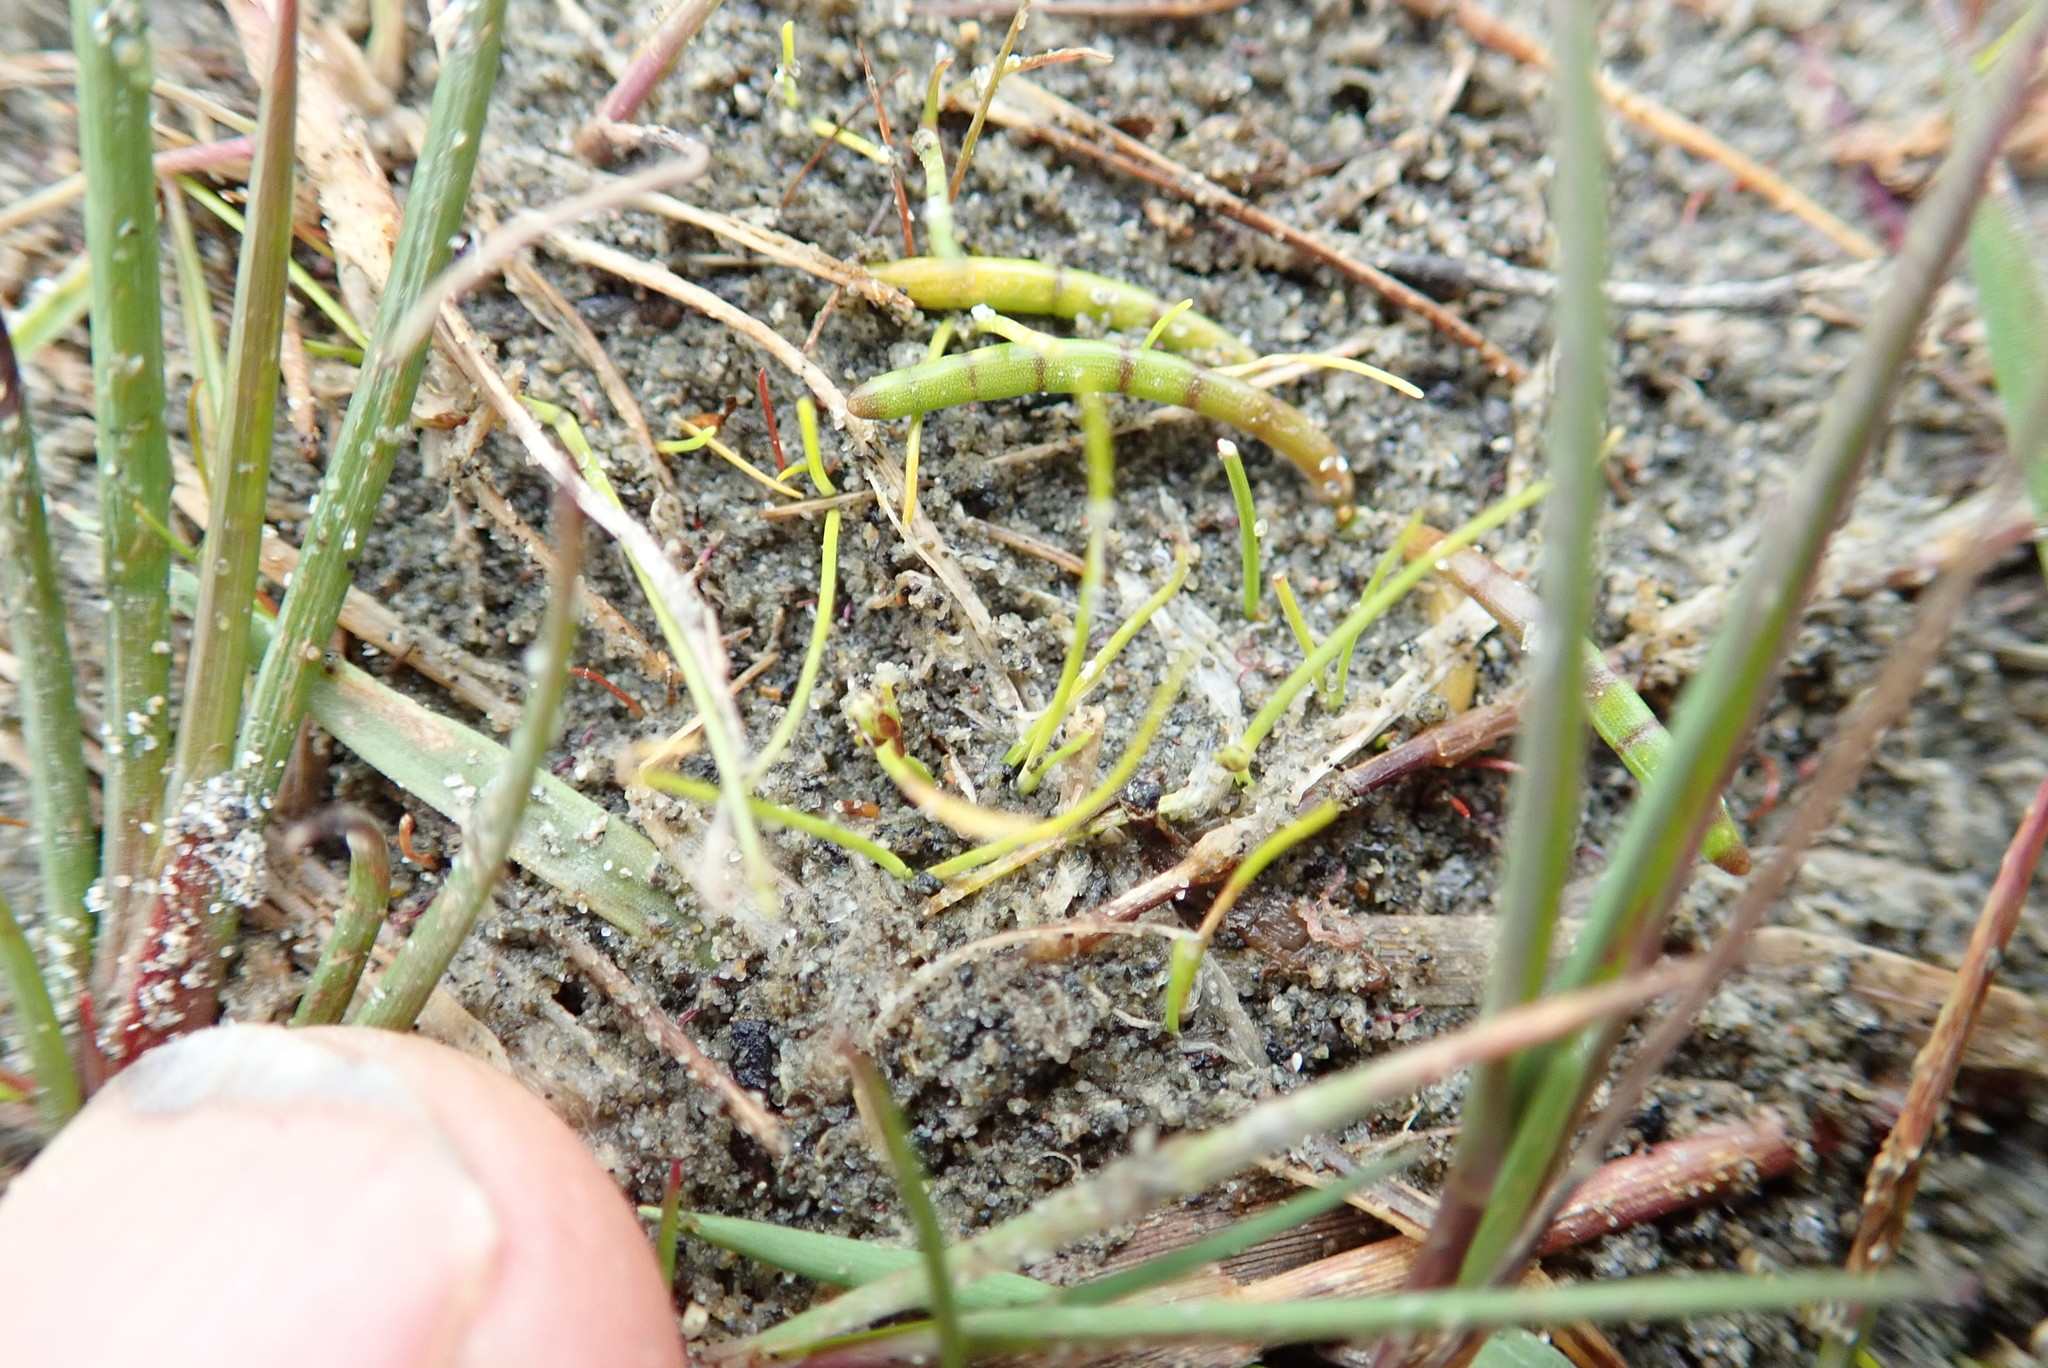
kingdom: Plantae
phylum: Tracheophyta
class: Magnoliopsida
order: Apiales
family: Apiaceae
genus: Lilaeopsis
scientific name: Lilaeopsis novae-zelandiae
